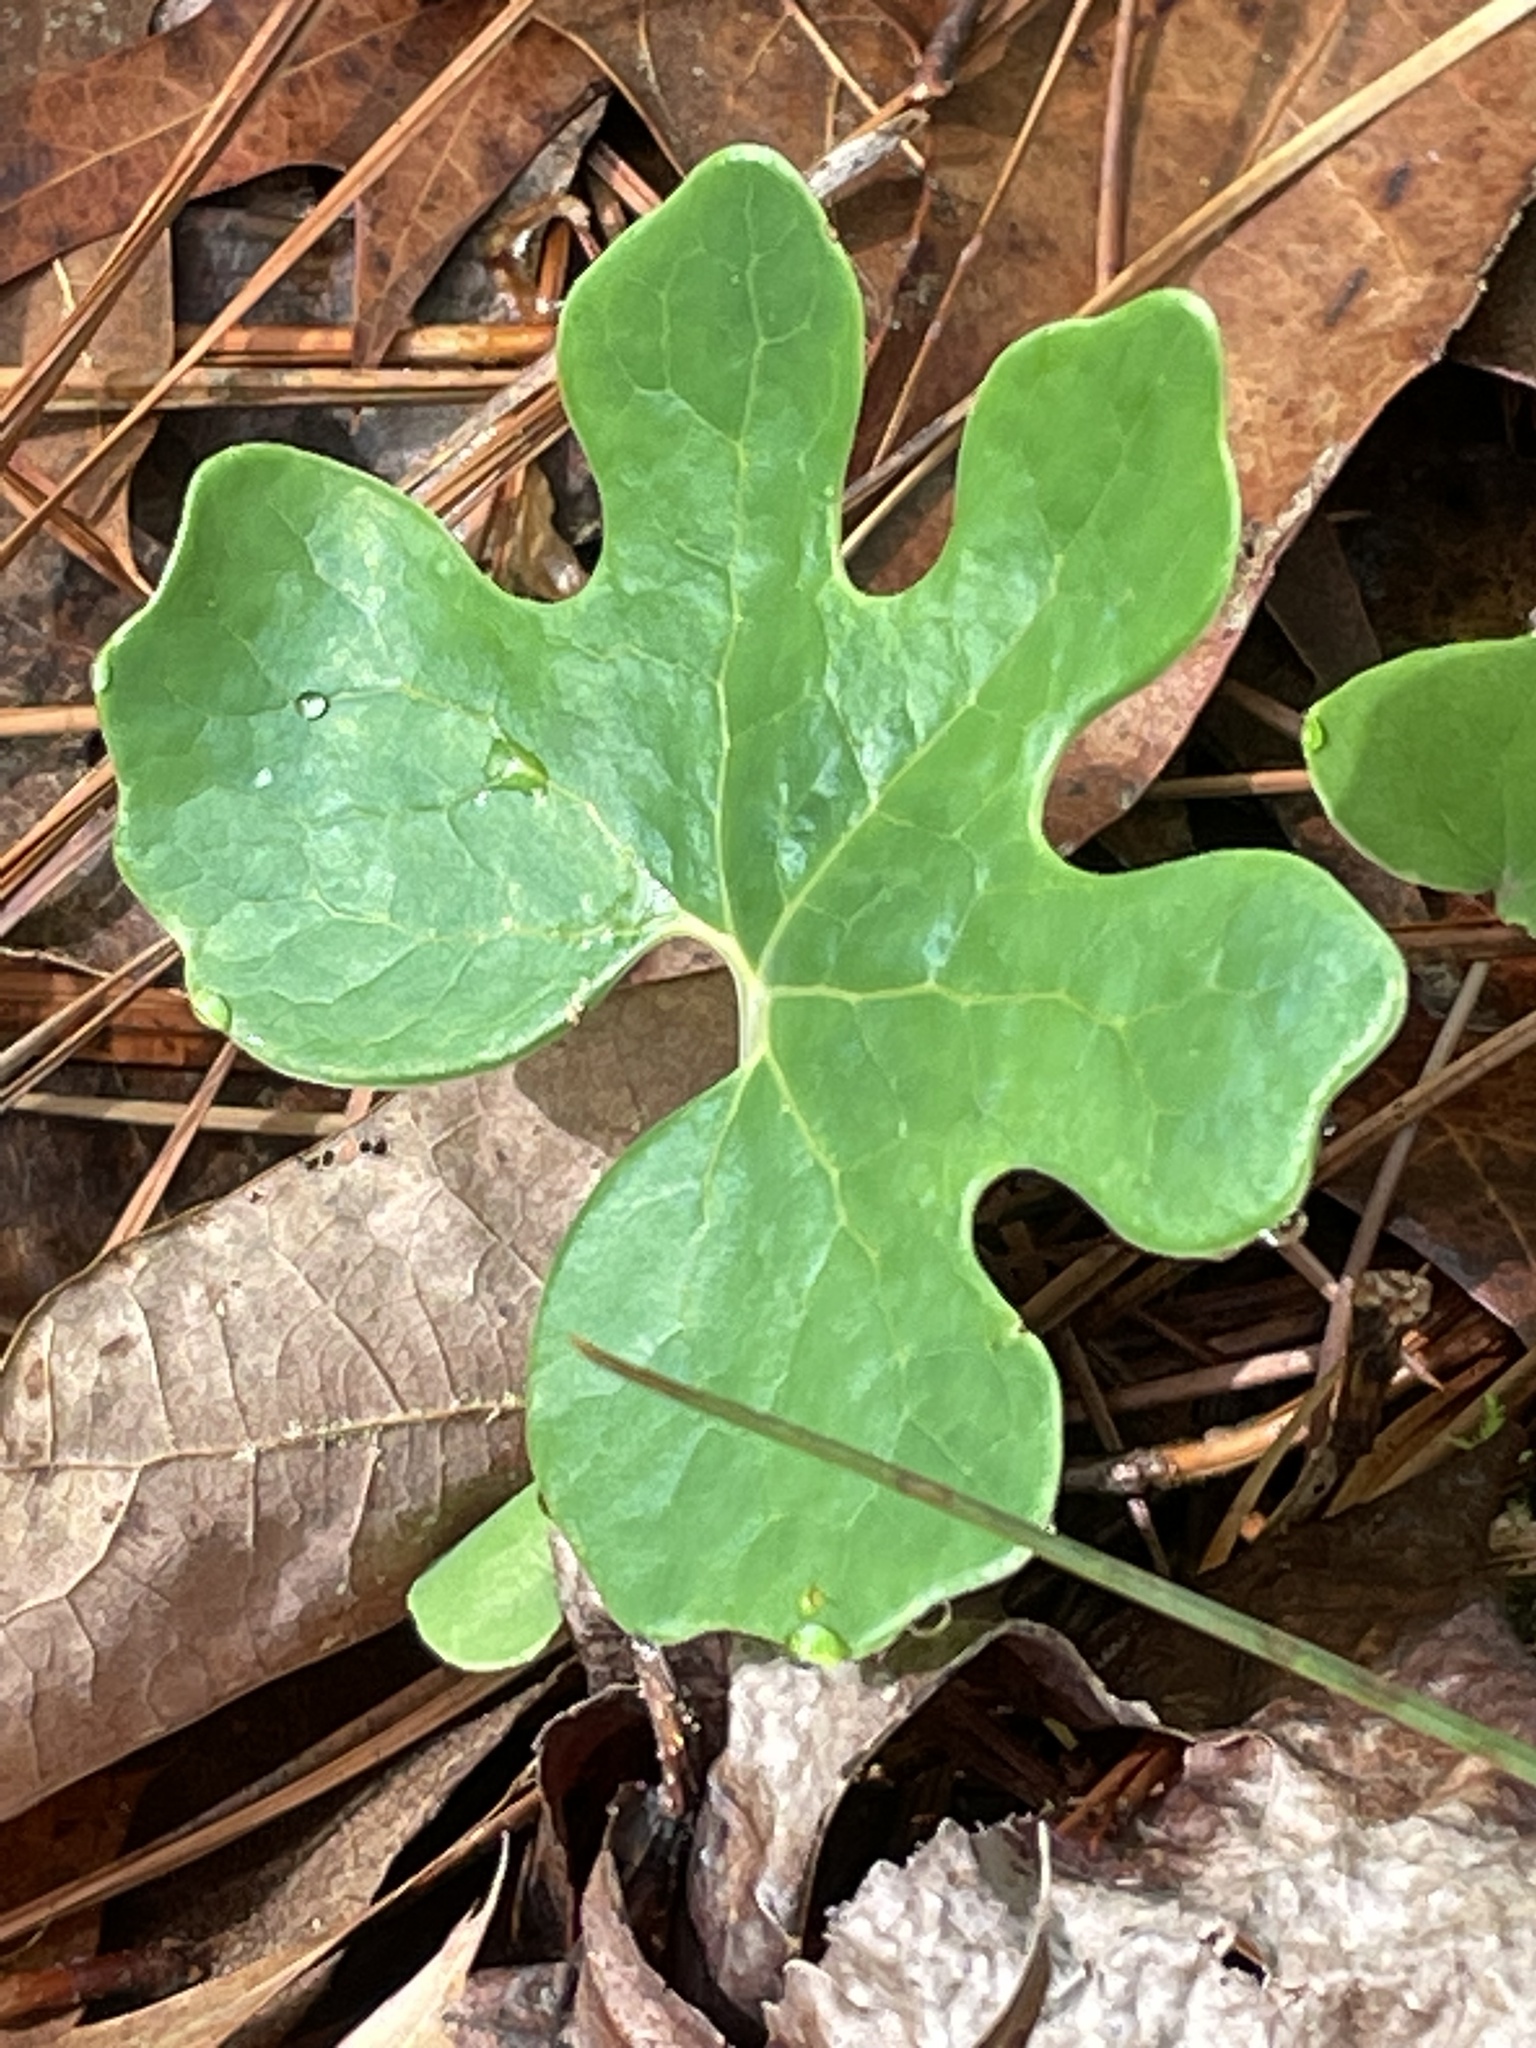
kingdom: Plantae
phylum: Tracheophyta
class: Magnoliopsida
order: Ranunculales
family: Papaveraceae
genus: Sanguinaria
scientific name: Sanguinaria canadensis
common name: Bloodroot
